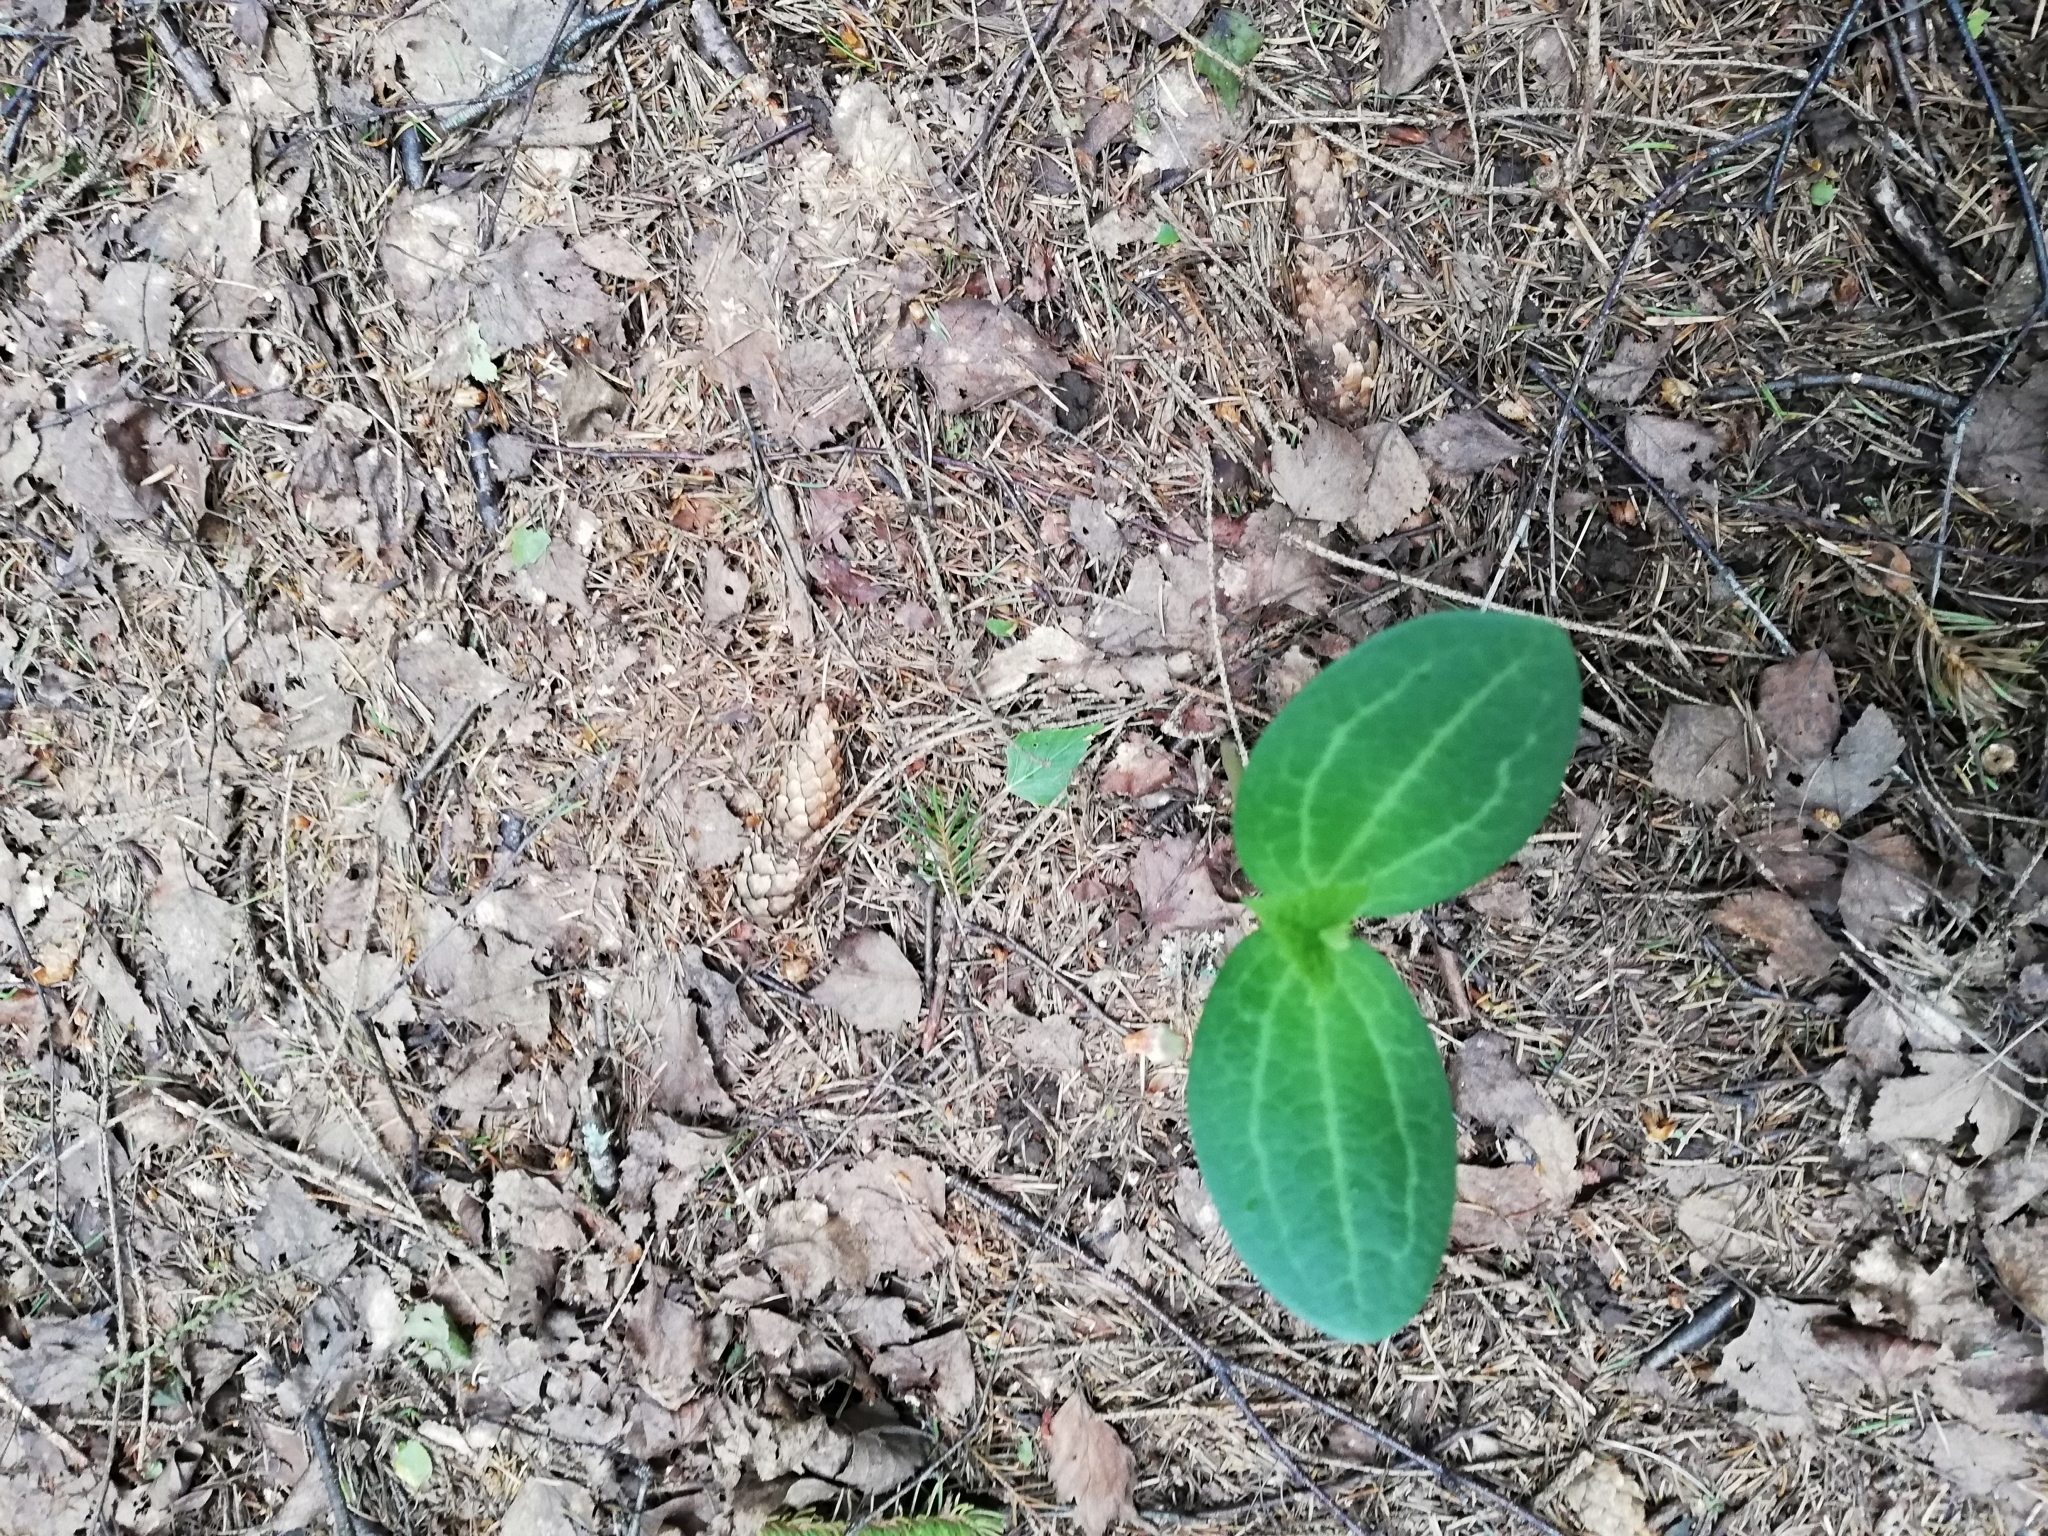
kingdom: Plantae
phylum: Tracheophyta
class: Magnoliopsida
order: Cucurbitales
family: Cucurbitaceae
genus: Echinocystis
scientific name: Echinocystis lobata
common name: Wild cucumber
